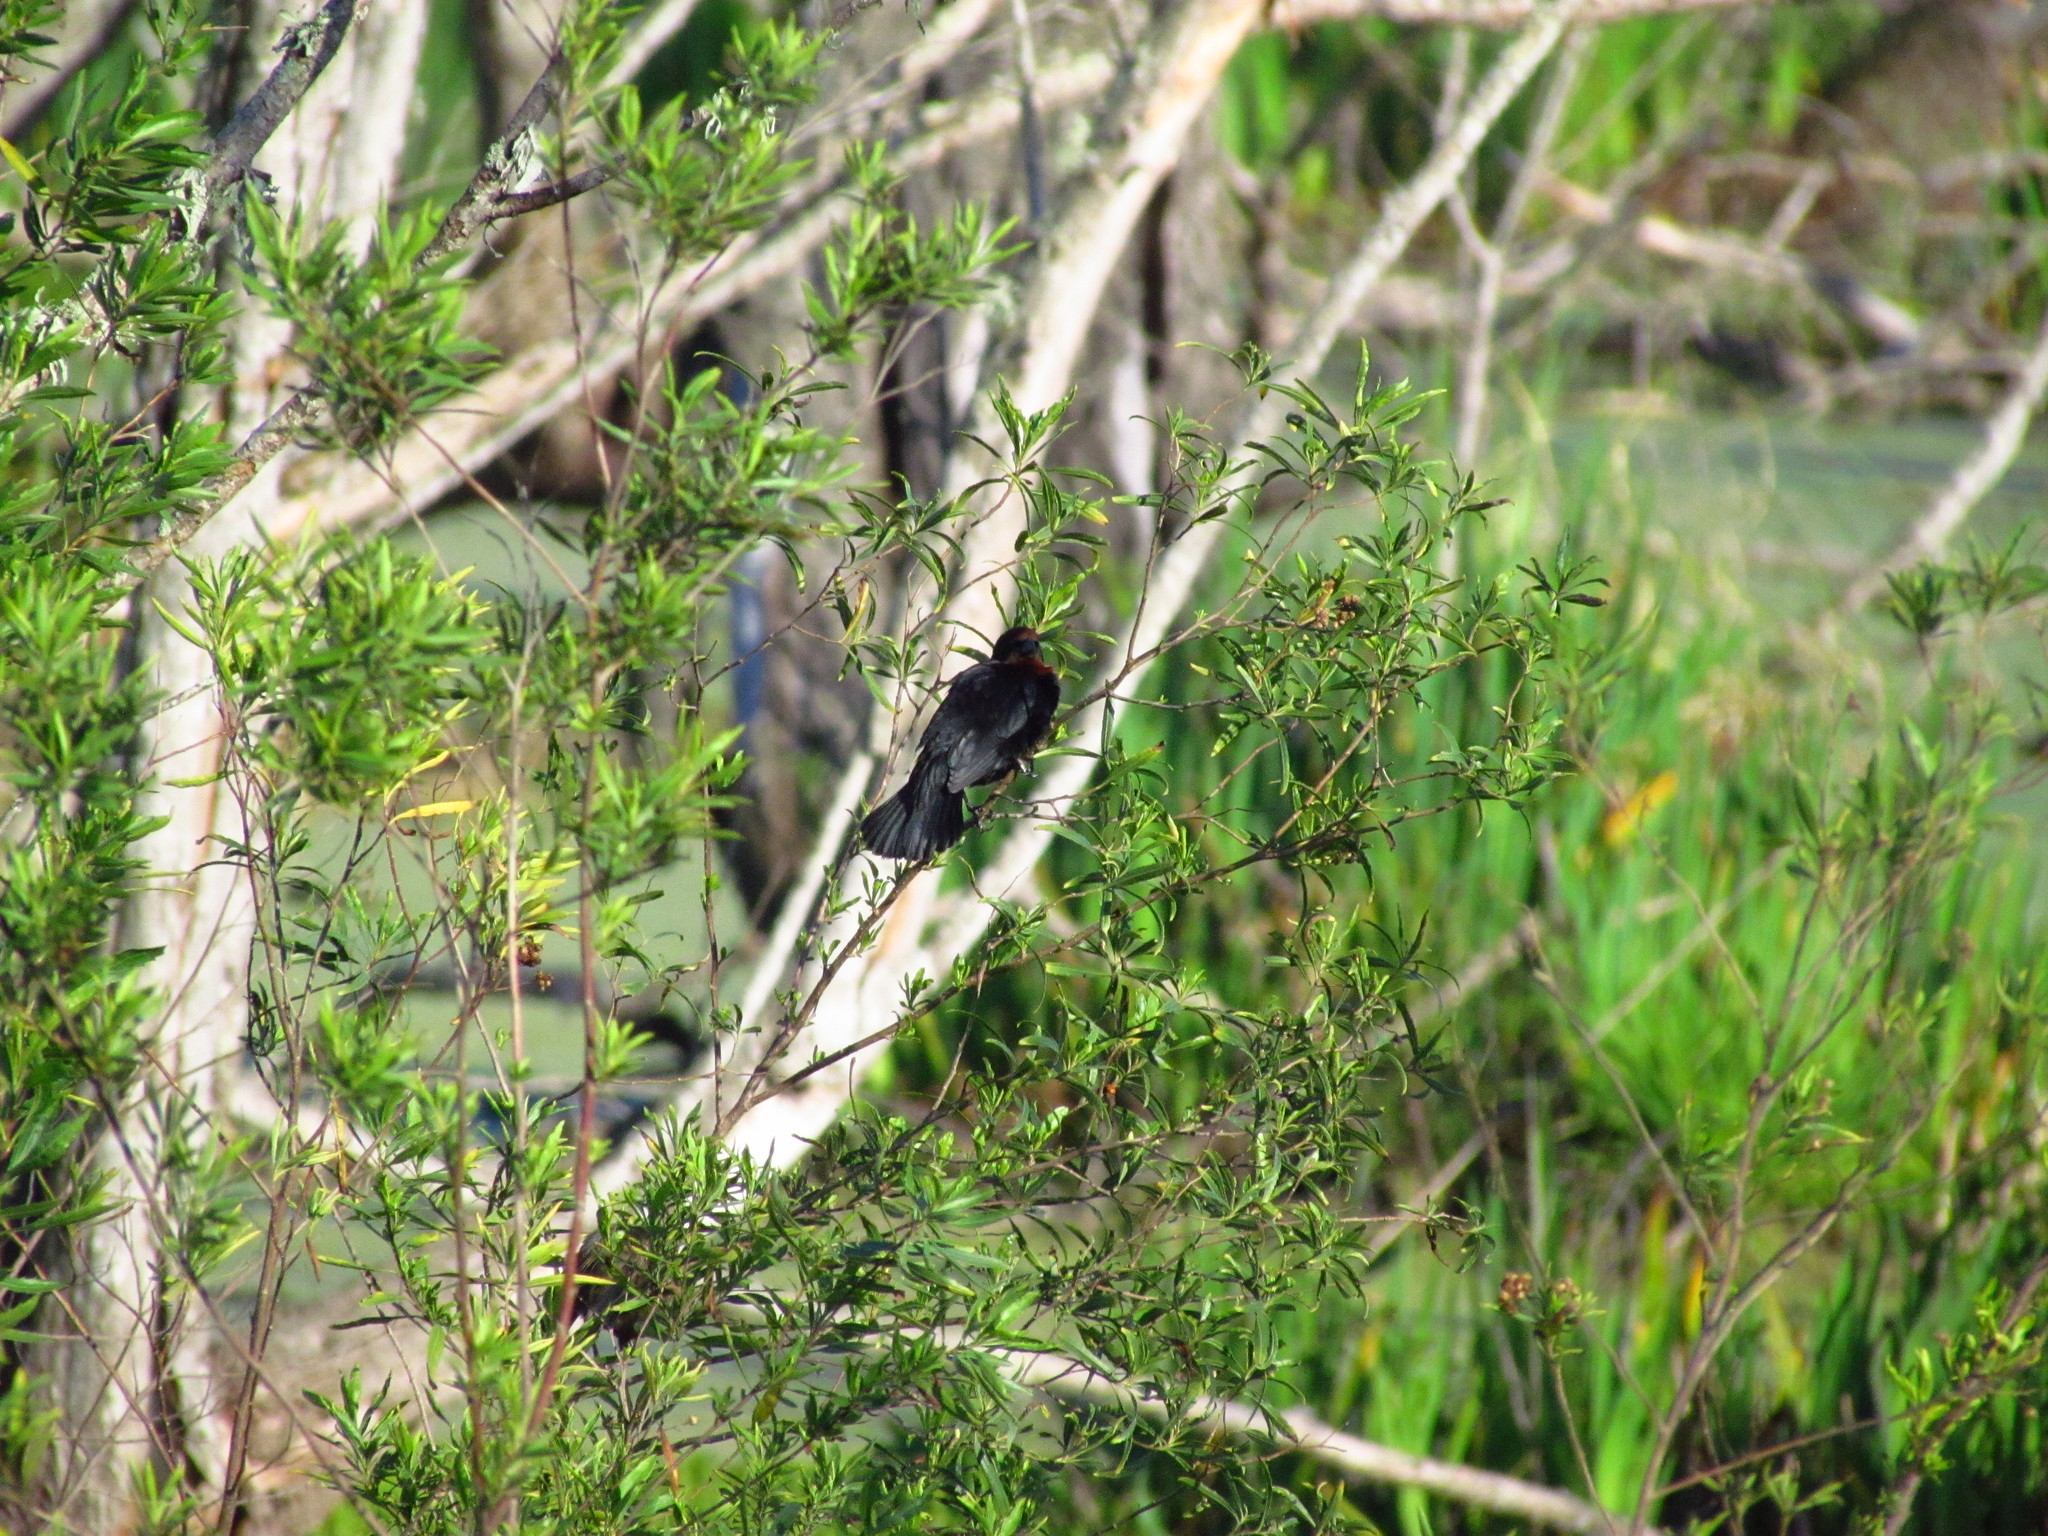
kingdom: Animalia
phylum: Chordata
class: Aves
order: Passeriformes
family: Icteridae
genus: Chrysomus
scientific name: Chrysomus ruficapillus
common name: Chestnut-capped blackbird
